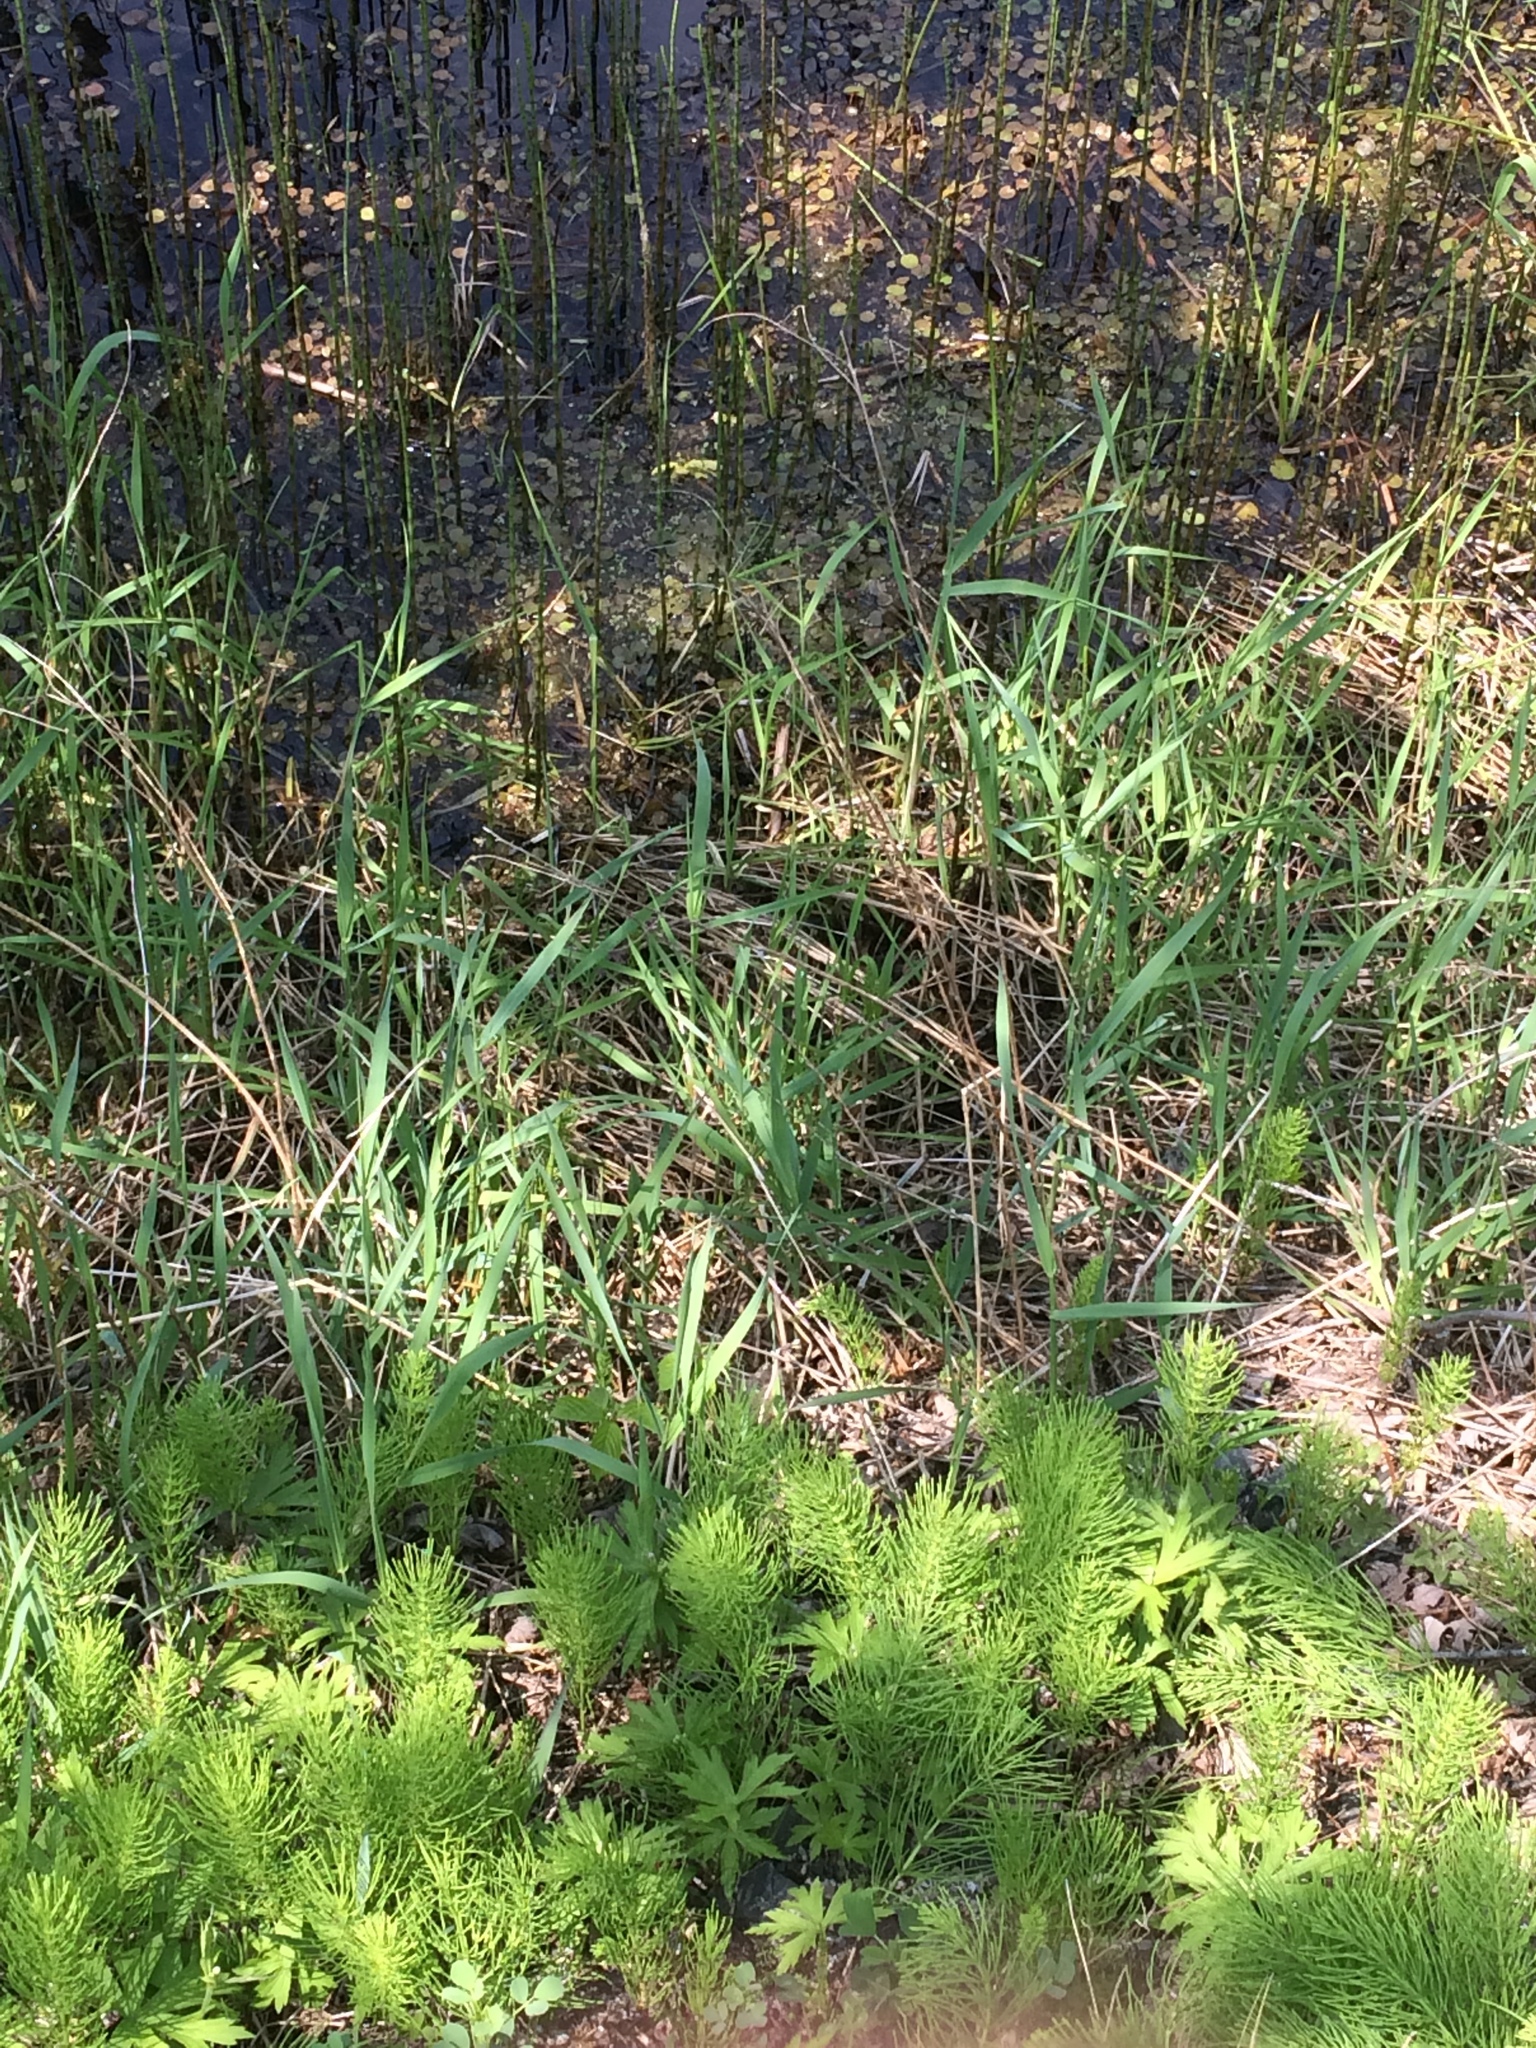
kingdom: Plantae
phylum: Tracheophyta
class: Liliopsida
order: Poales
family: Poaceae
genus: Phalaris
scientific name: Phalaris arundinacea
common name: Reed canary-grass
